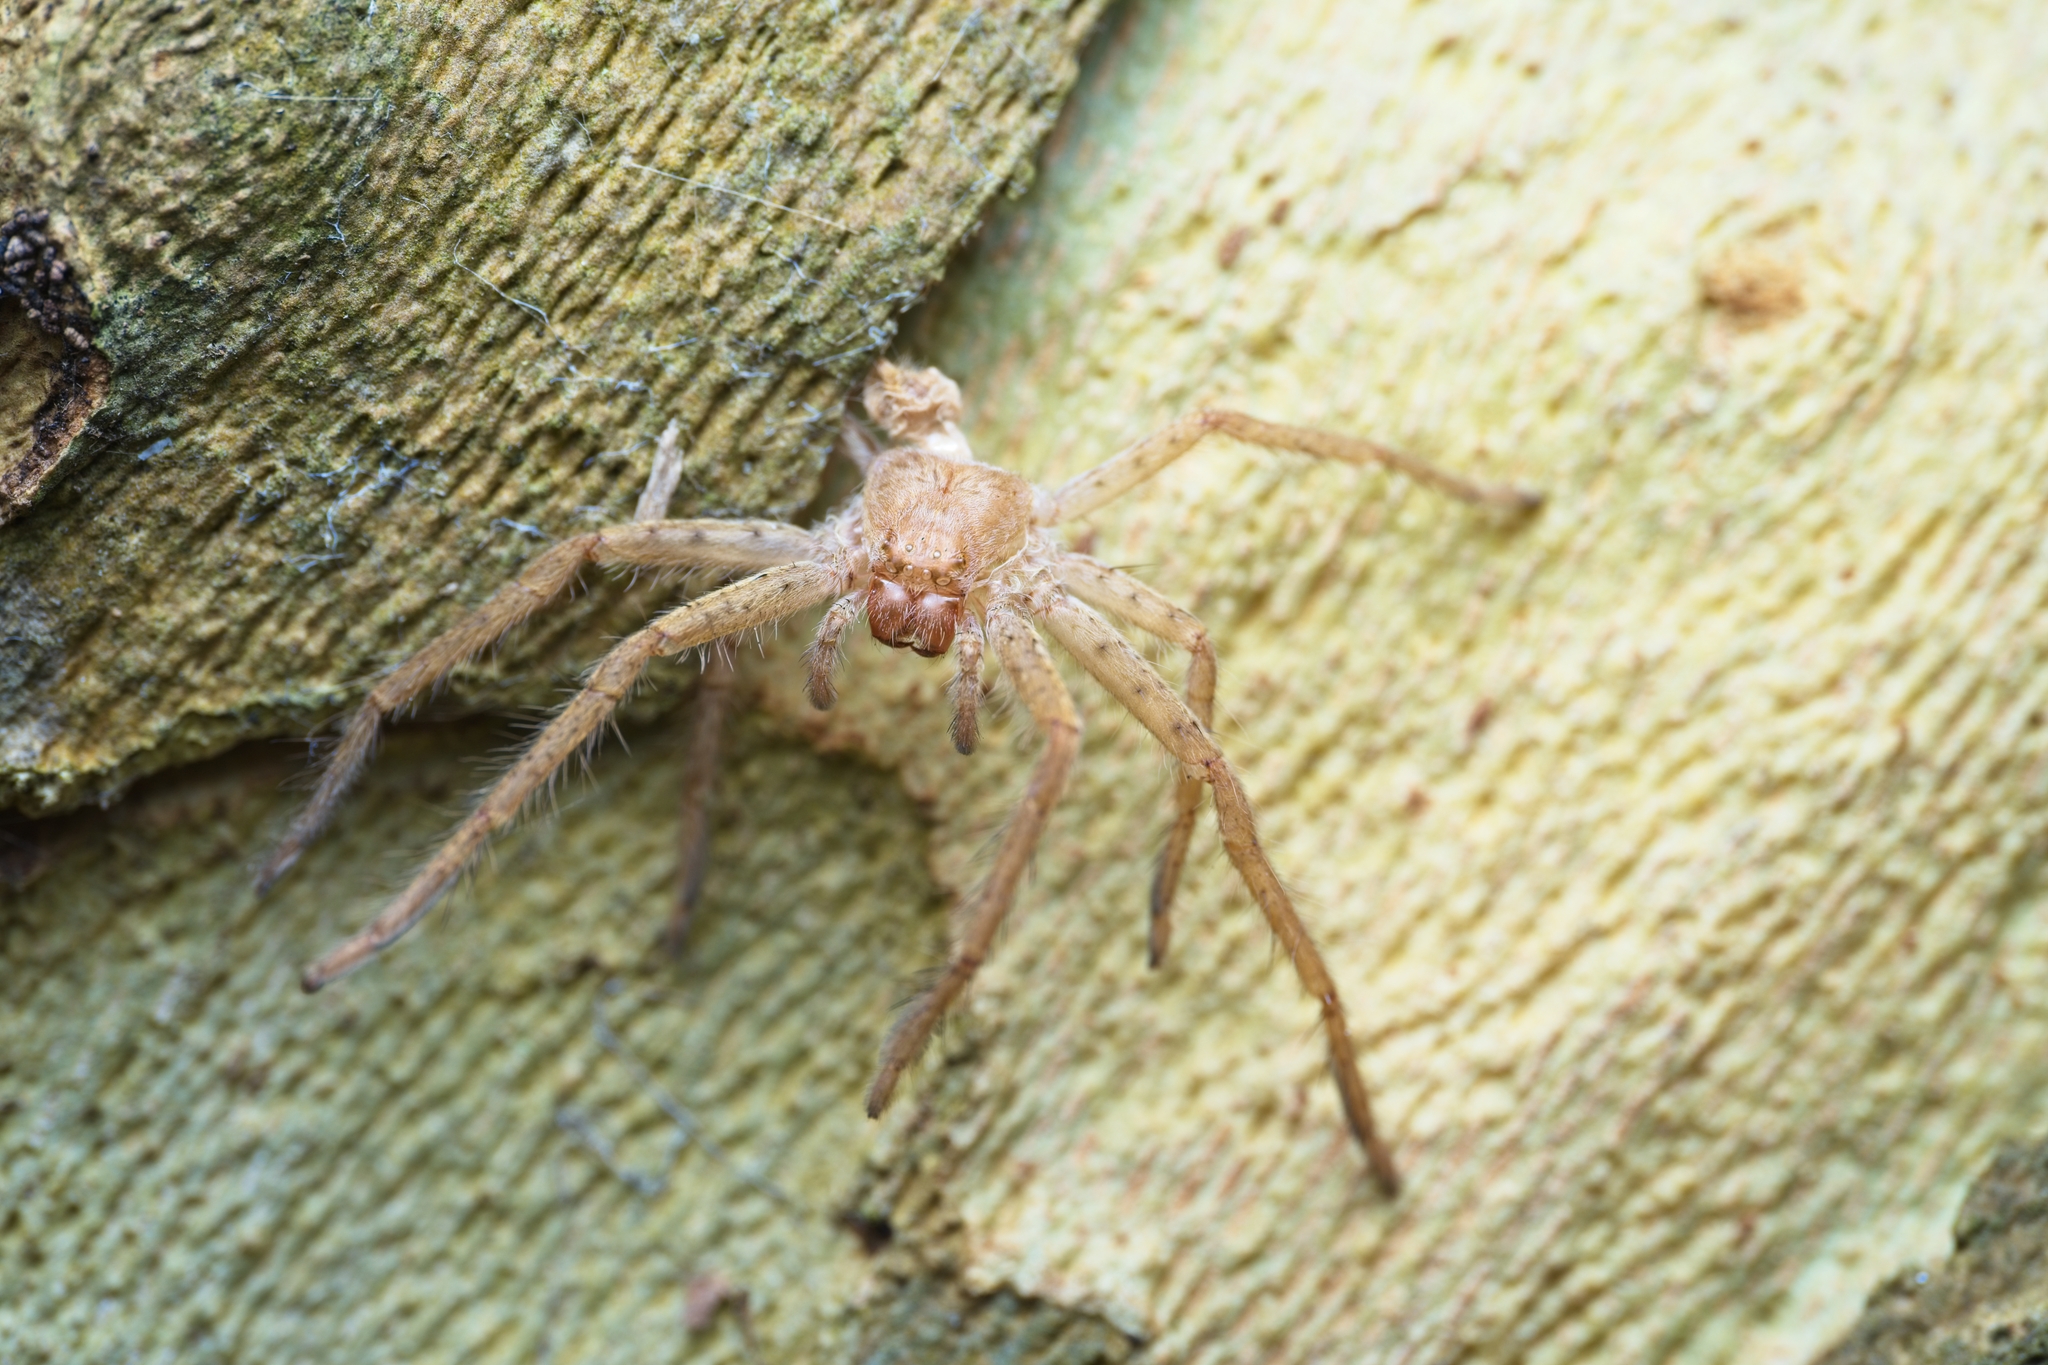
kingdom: Animalia
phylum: Arthropoda
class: Arachnida
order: Araneae
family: Sparassidae
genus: Isopeda
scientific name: Isopeda villosa
